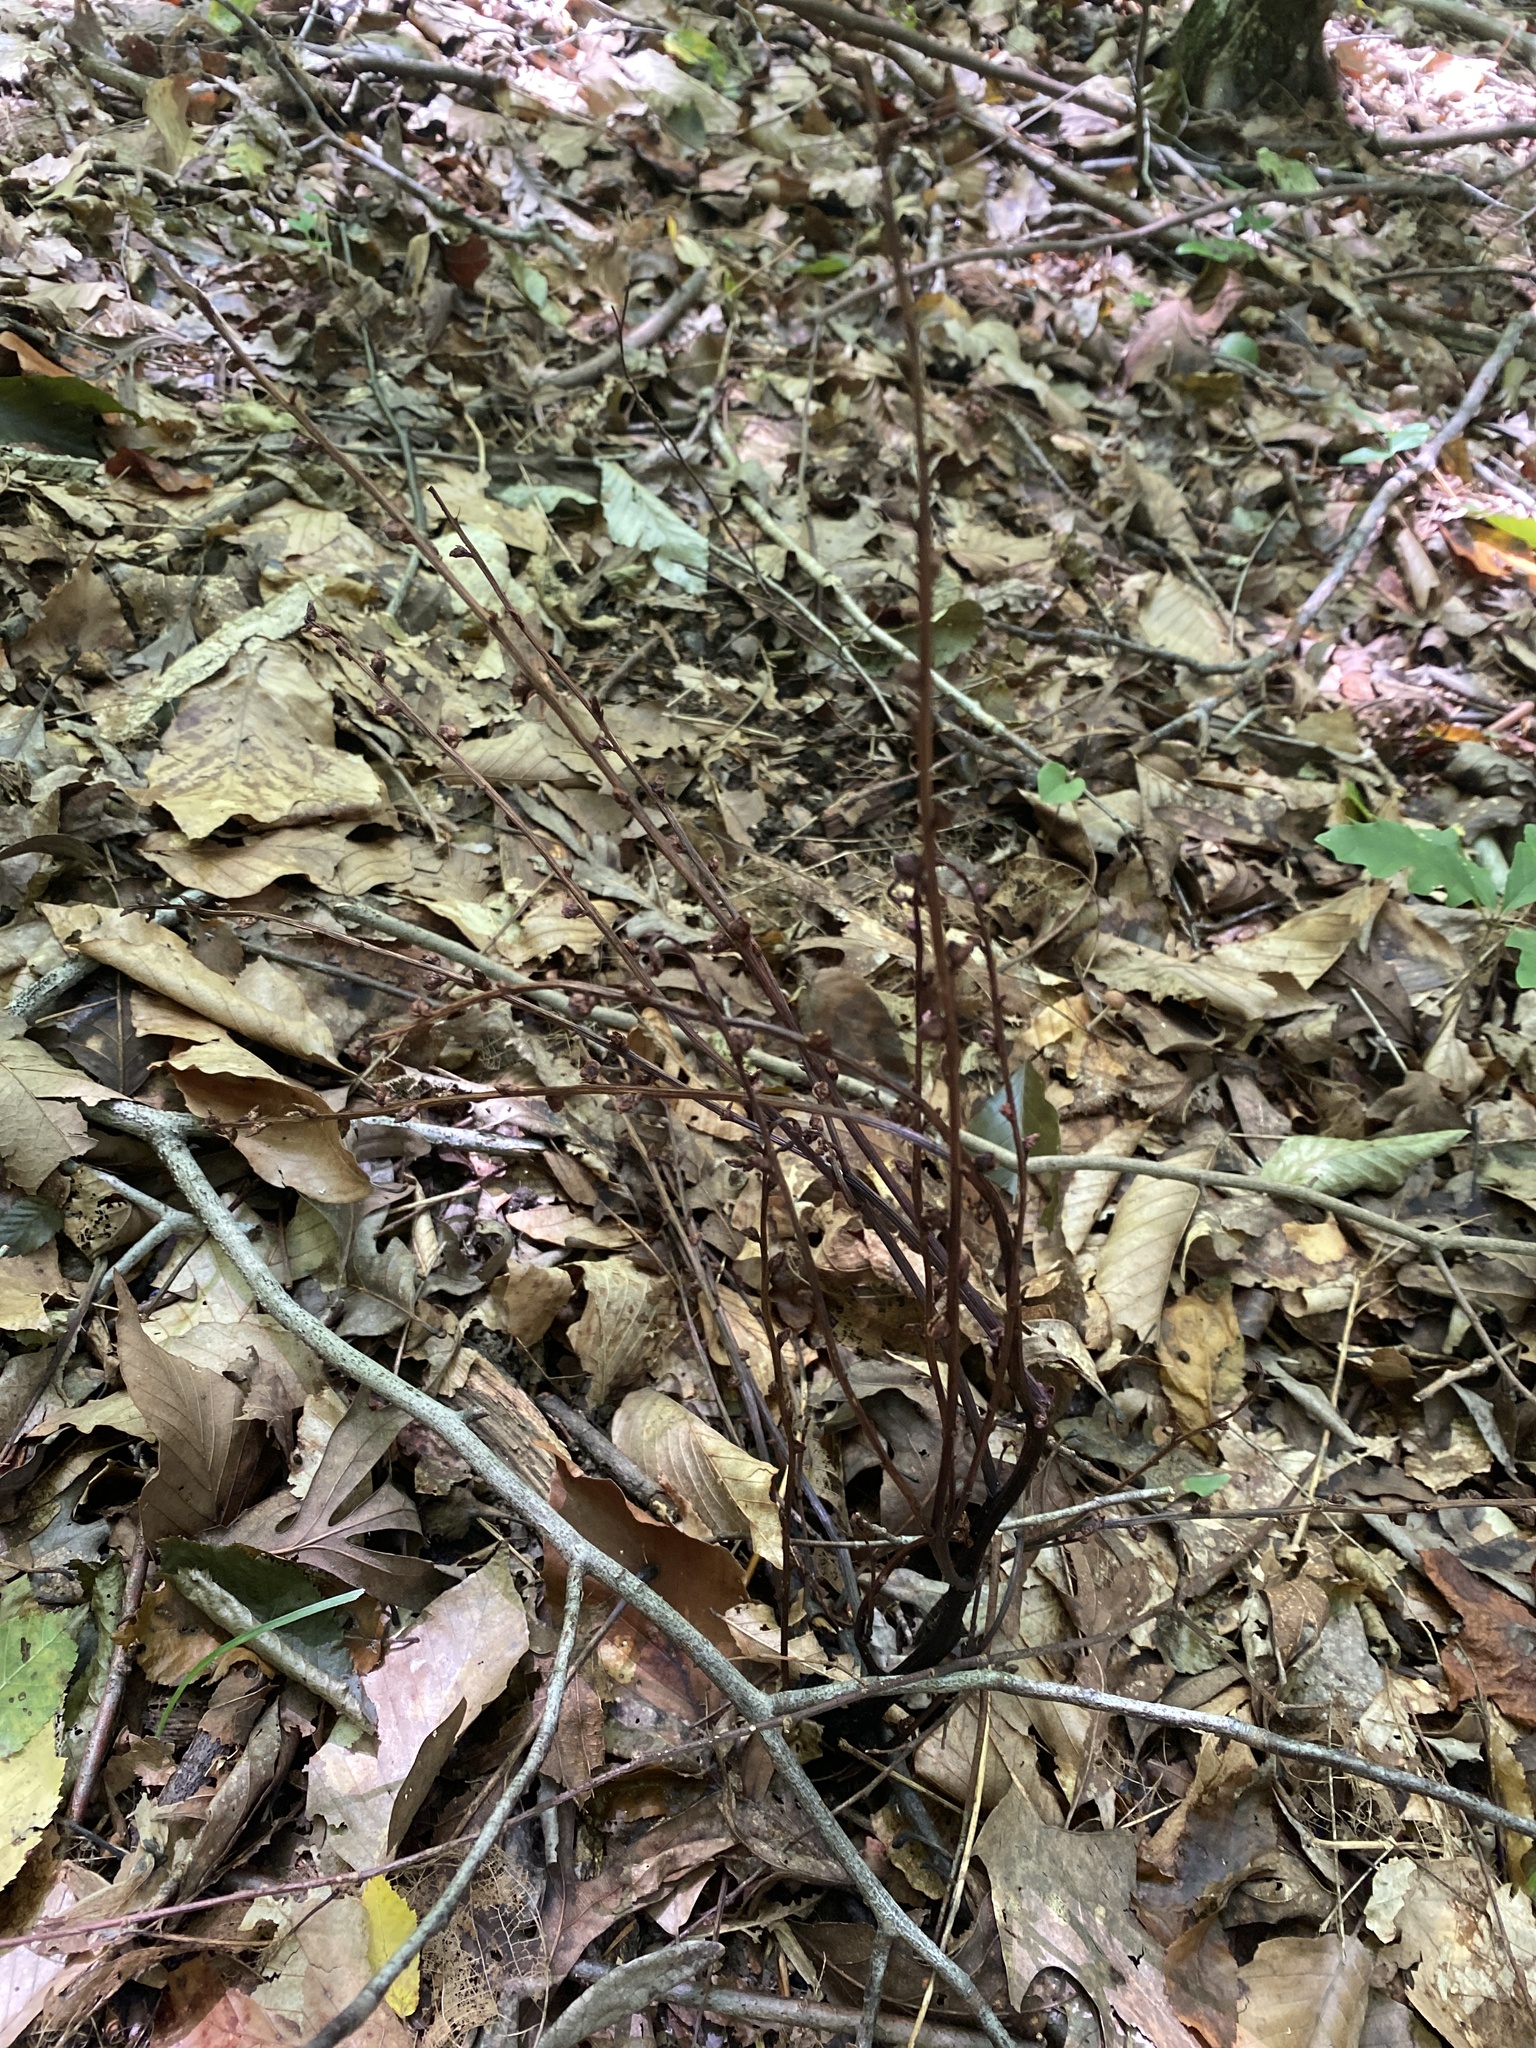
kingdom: Plantae
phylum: Tracheophyta
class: Magnoliopsida
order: Lamiales
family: Orobanchaceae
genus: Epifagus
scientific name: Epifagus virginiana
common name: Beechdrops
